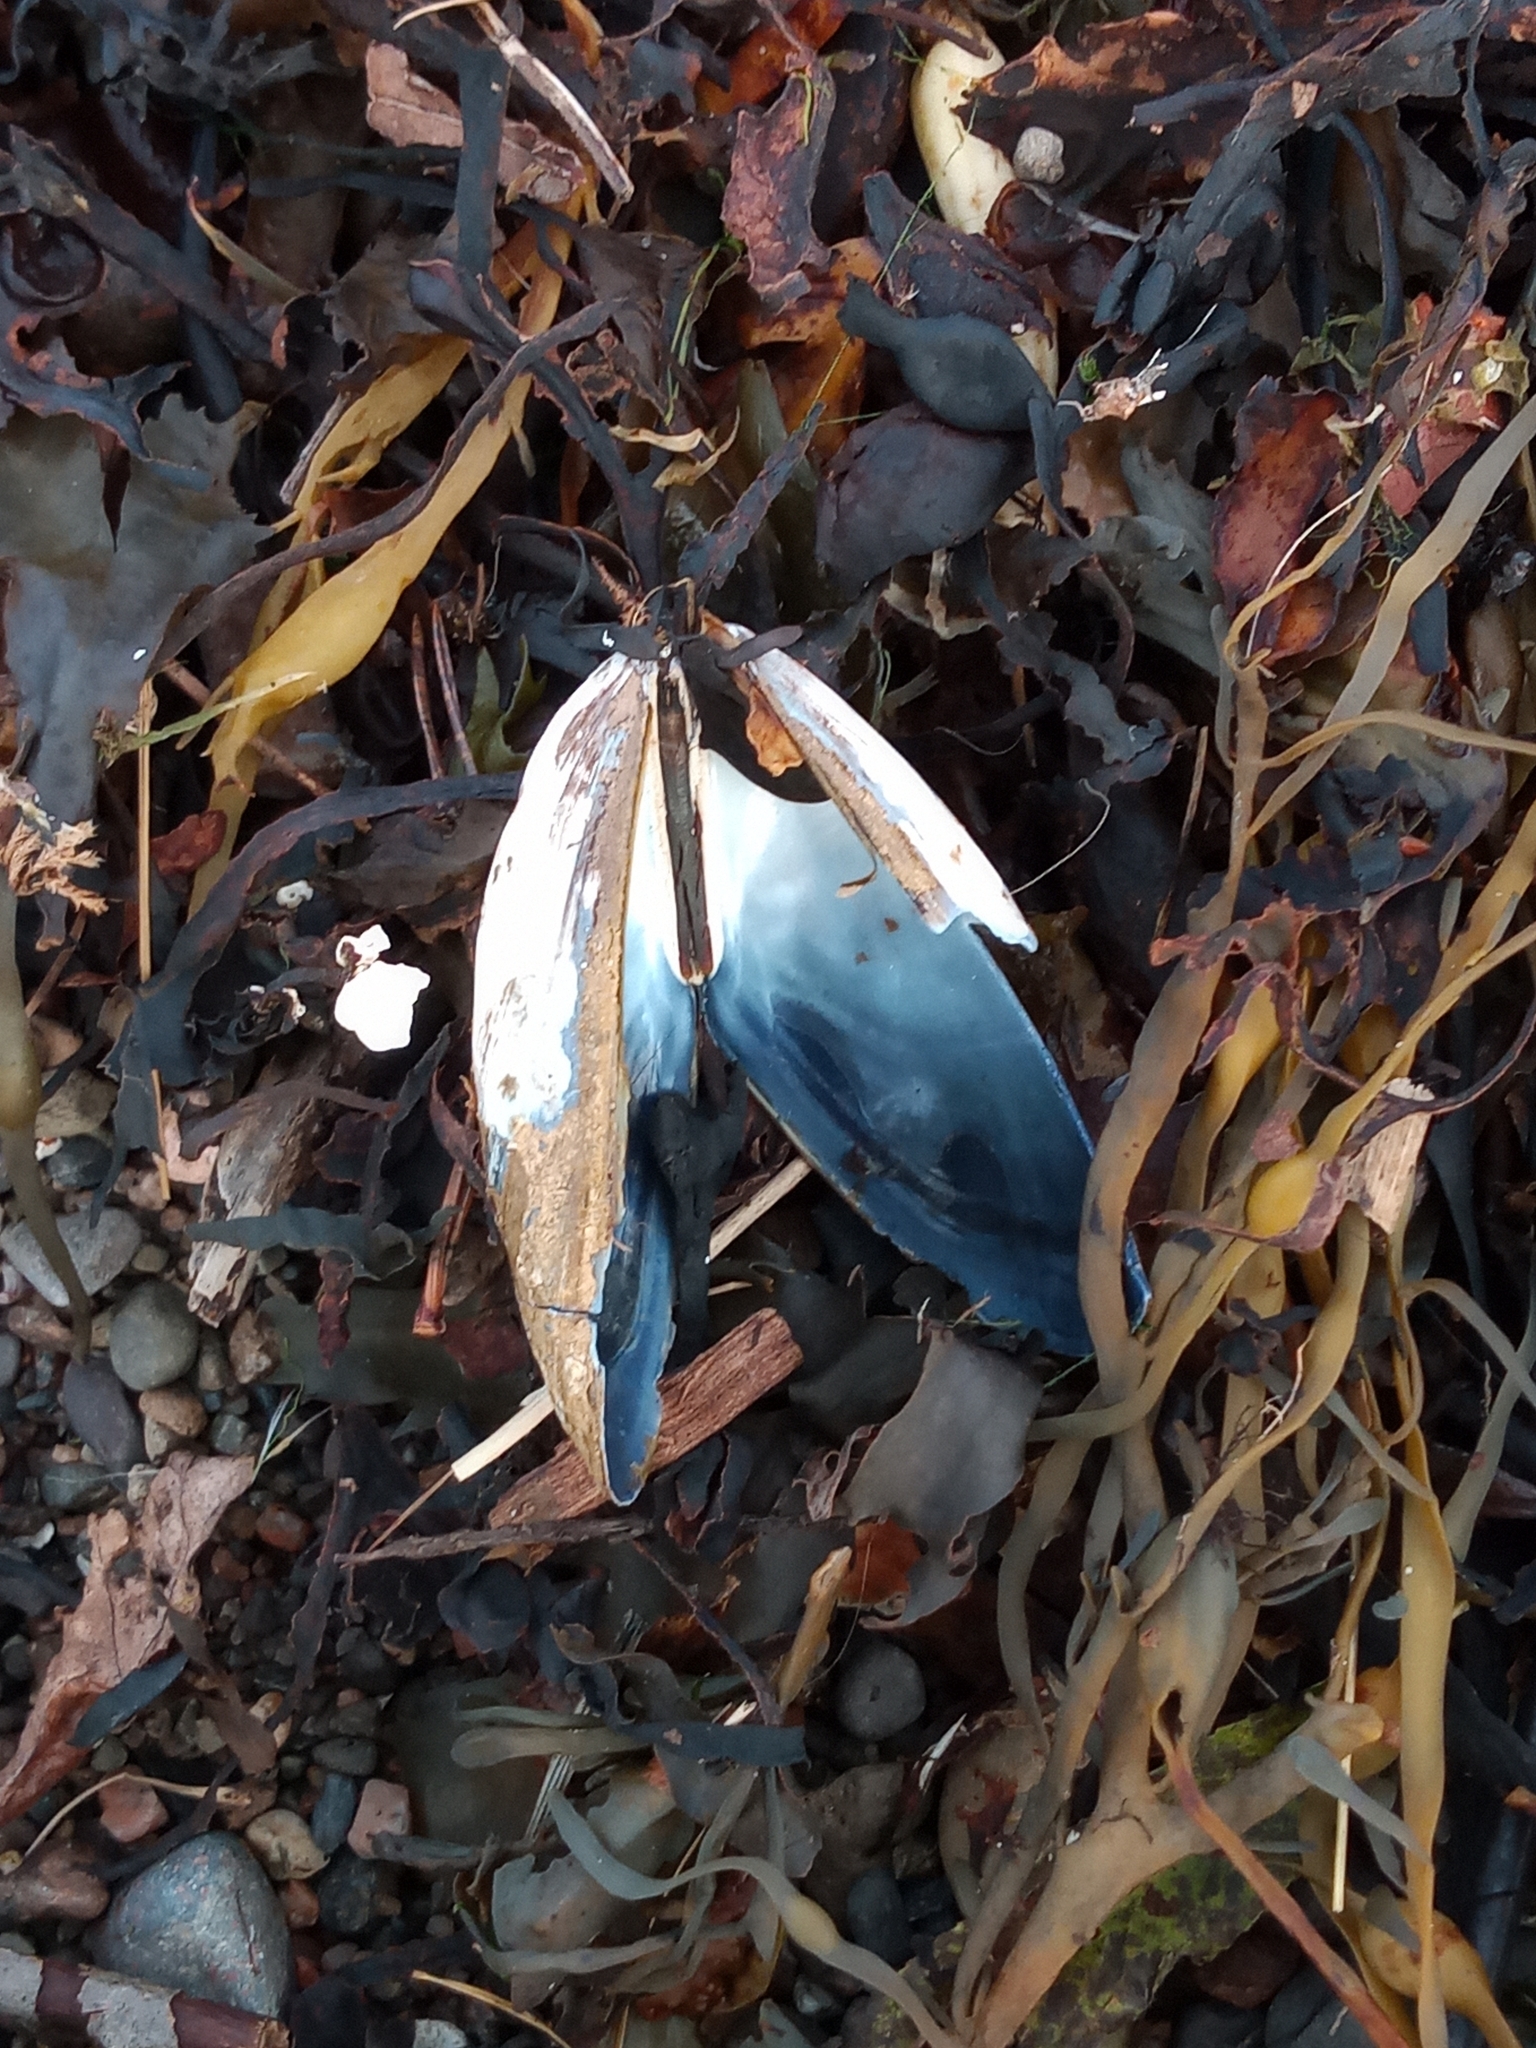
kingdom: Animalia
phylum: Mollusca
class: Bivalvia
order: Mytilida
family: Mytilidae
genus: Mytilus
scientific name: Mytilus edulis
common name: Blue mussel
